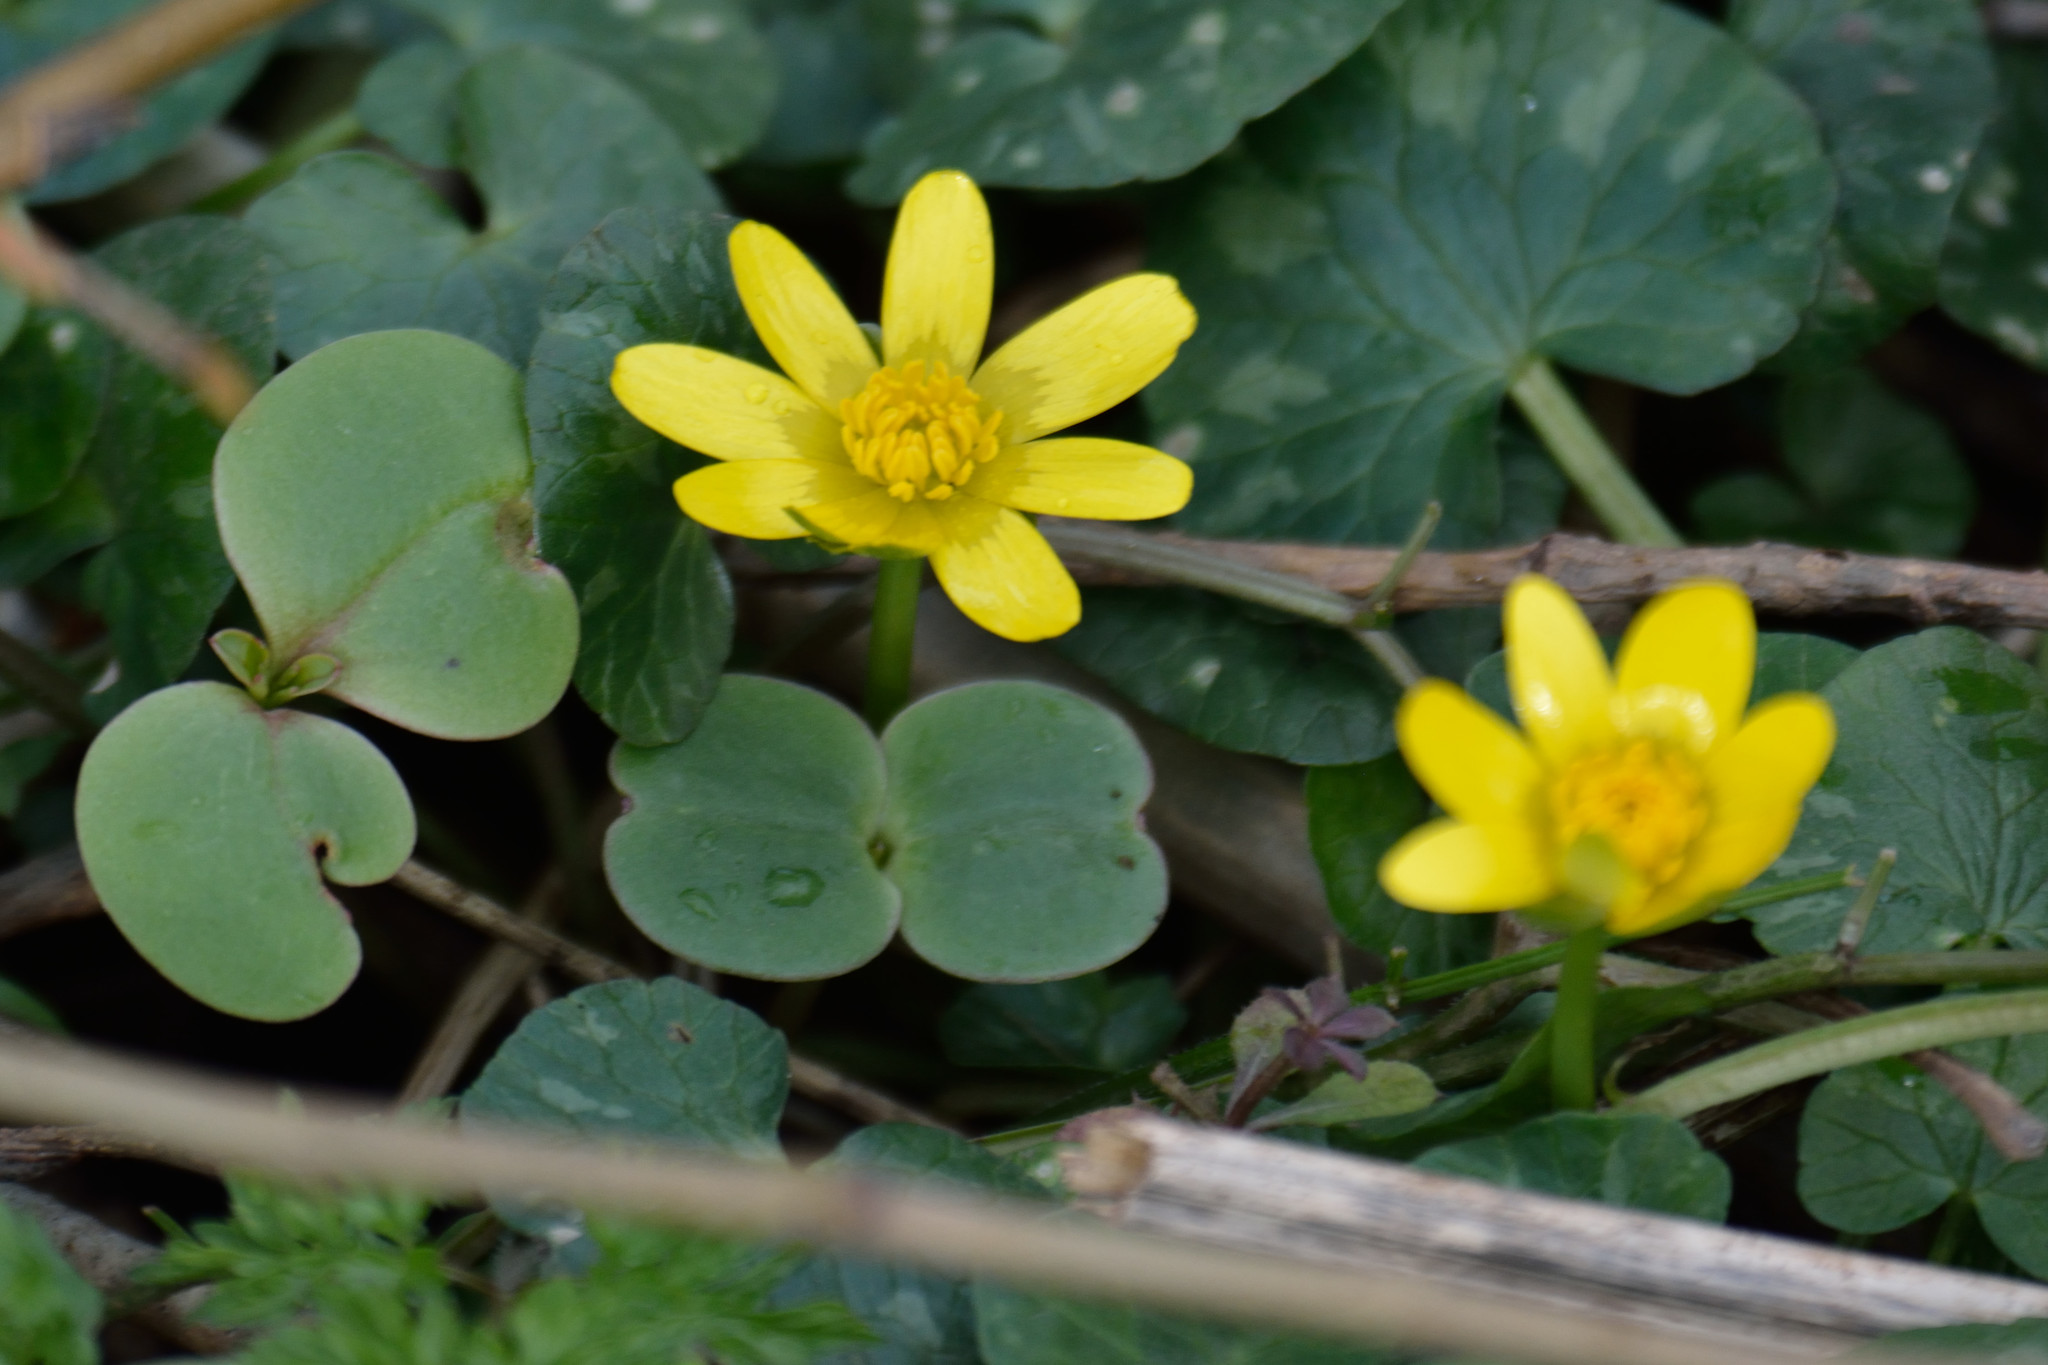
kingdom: Plantae
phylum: Tracheophyta
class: Magnoliopsida
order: Ranunculales
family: Ranunculaceae
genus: Ficaria
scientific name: Ficaria verna
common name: Lesser celandine
